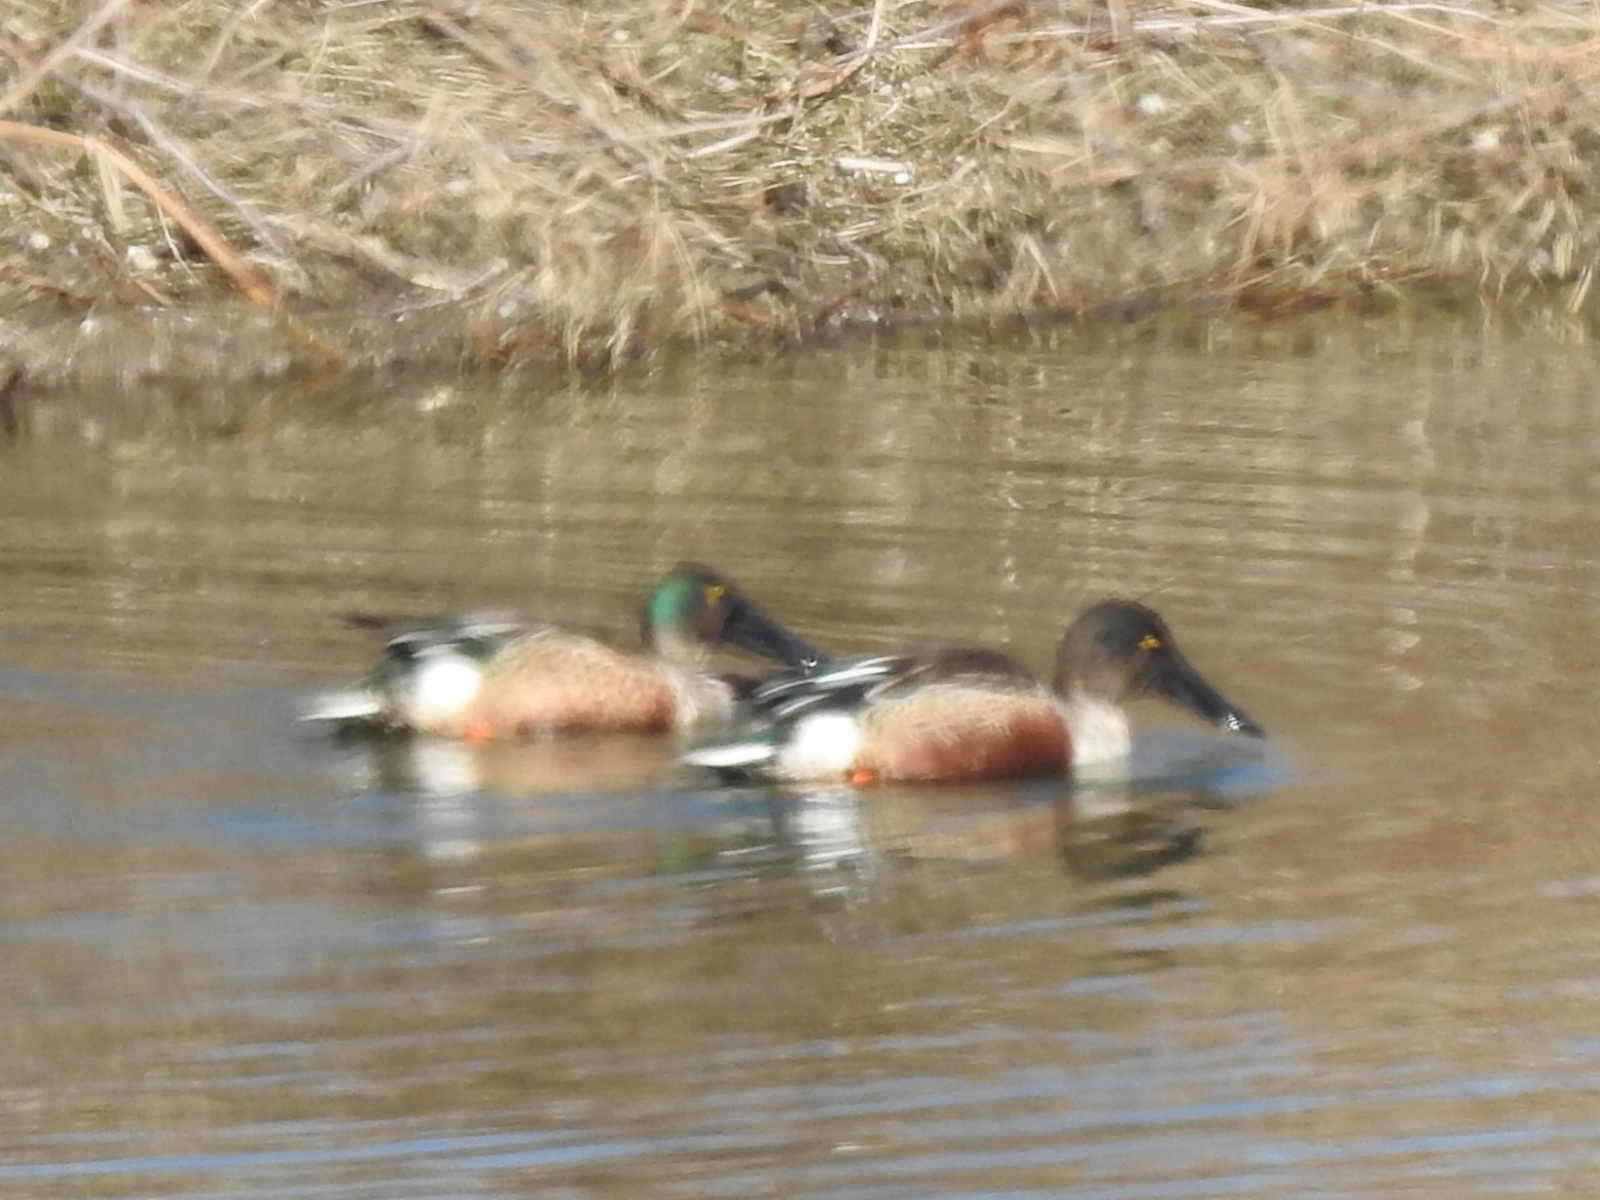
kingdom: Animalia
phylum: Chordata
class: Aves
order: Anseriformes
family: Anatidae
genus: Spatula
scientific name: Spatula clypeata
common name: Northern shoveler
